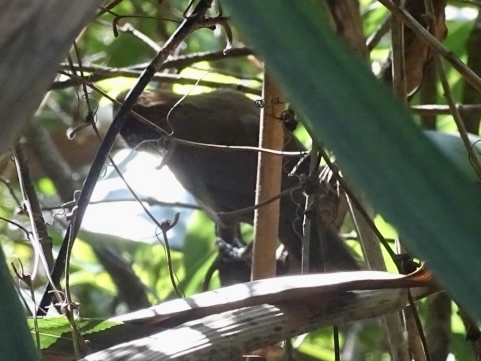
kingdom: Animalia
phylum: Chordata
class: Aves
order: Passeriformes
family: Timaliidae
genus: Pomatorhinus
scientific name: Pomatorhinus ruficollis
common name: Streak-breasted scimitar babbler
